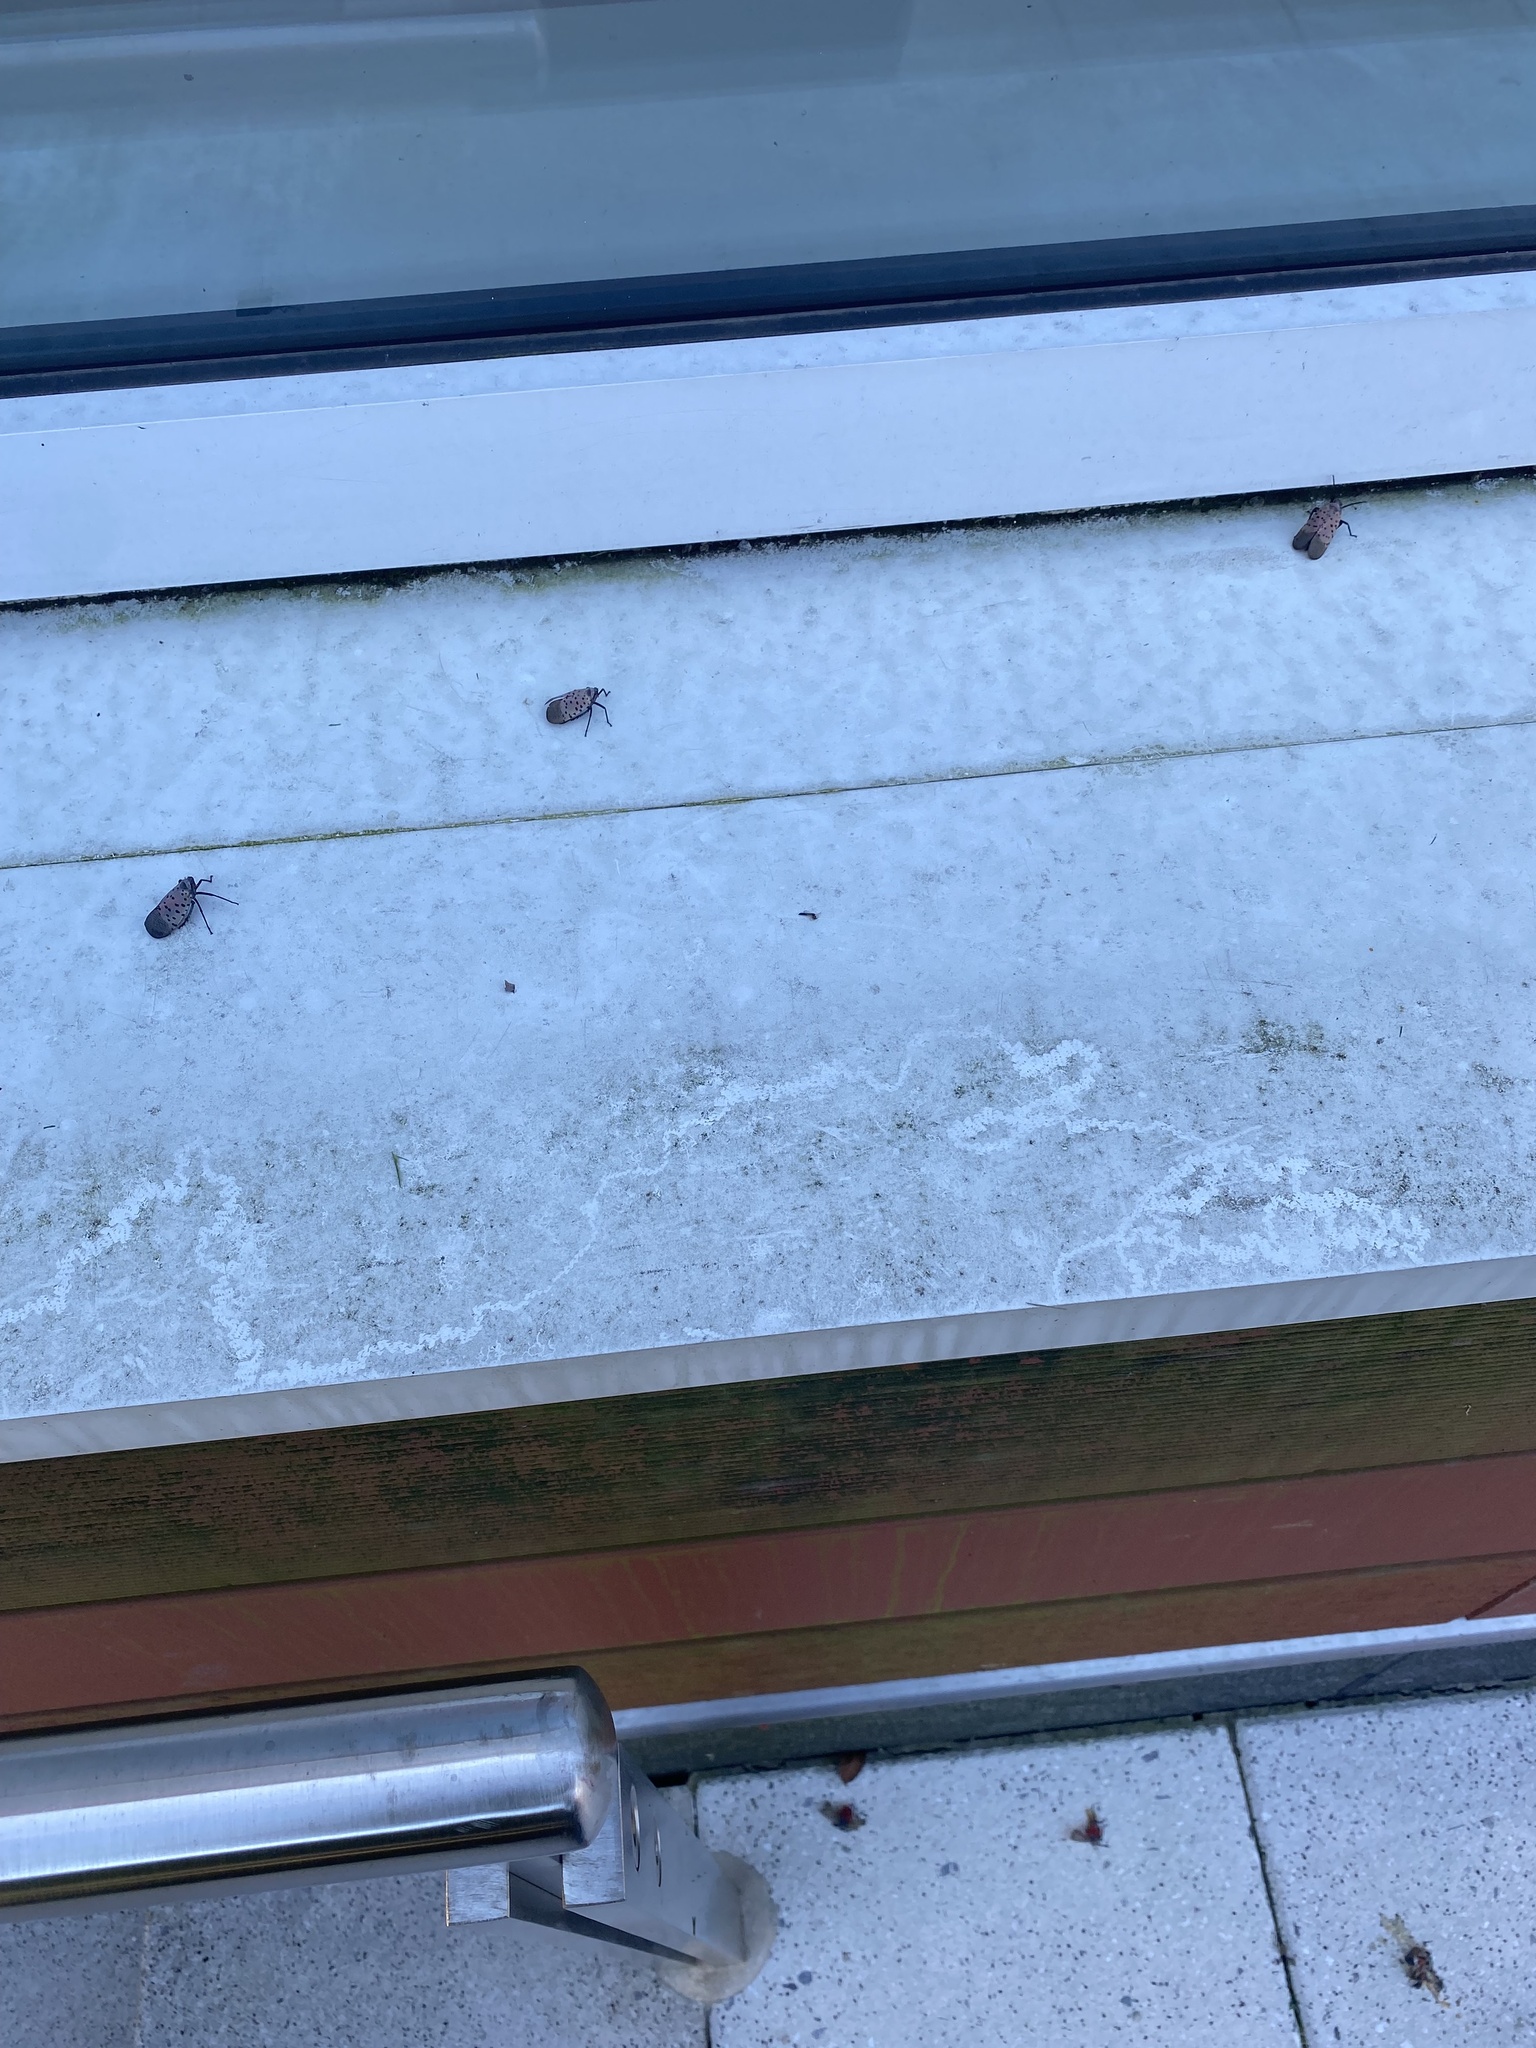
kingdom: Animalia
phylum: Arthropoda
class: Insecta
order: Hemiptera
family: Fulgoridae
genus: Lycorma
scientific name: Lycorma delicatula
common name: Spotted lanternfly
